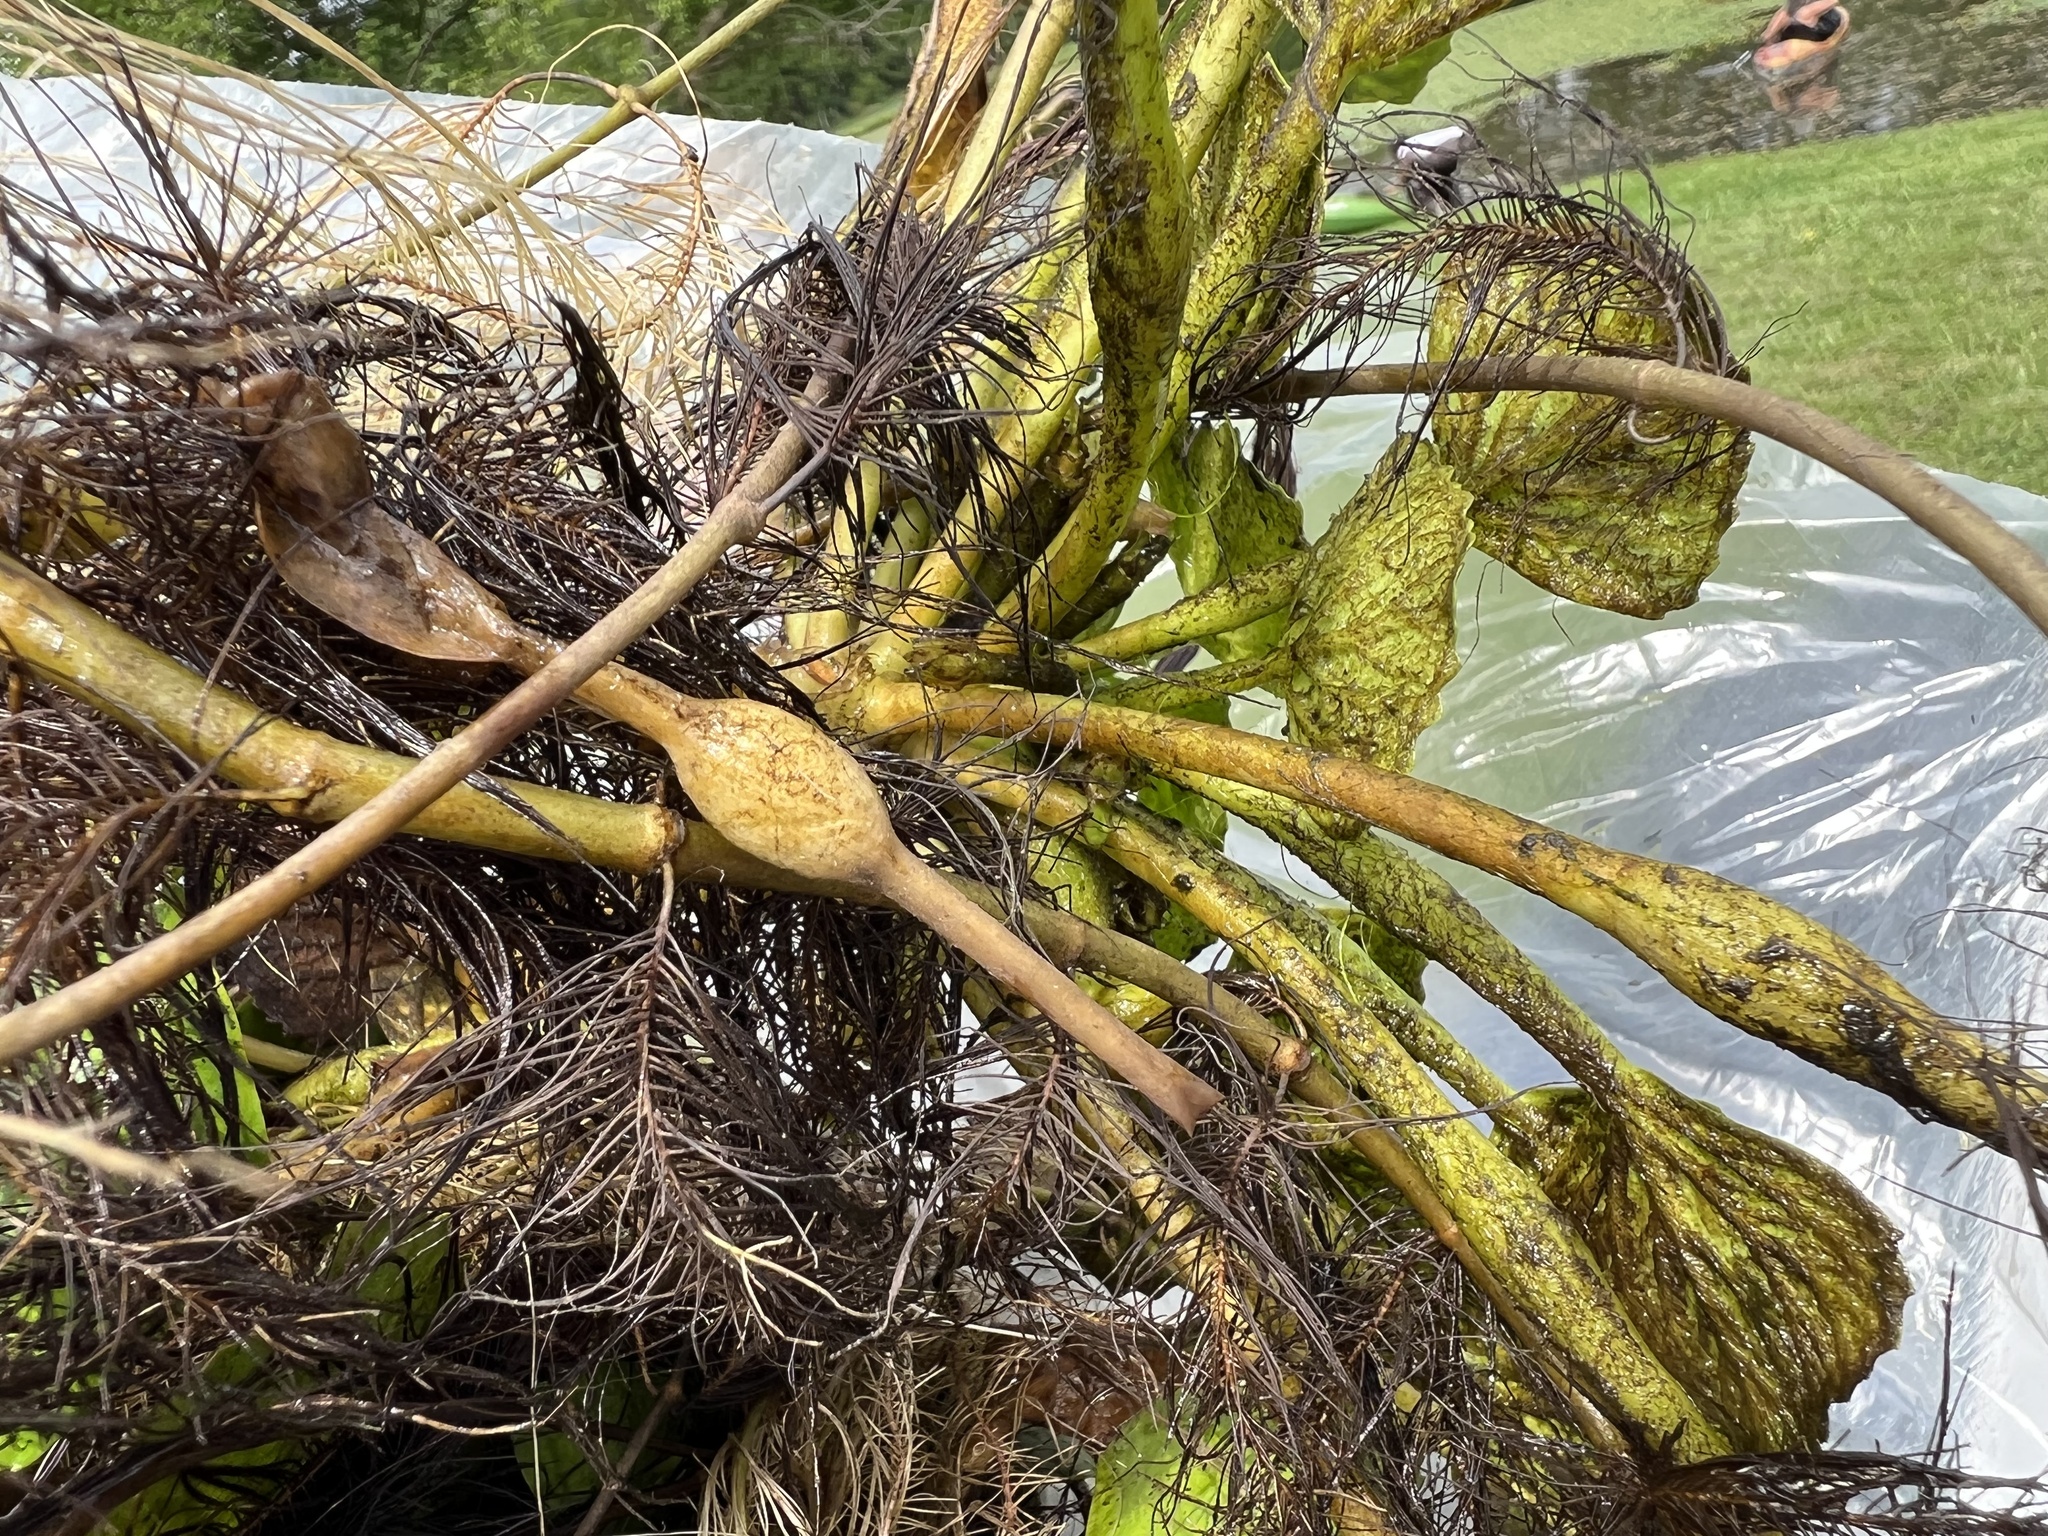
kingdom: Plantae
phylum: Tracheophyta
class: Magnoliopsida
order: Myrtales
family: Lythraceae
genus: Trapa
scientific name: Trapa natans
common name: Water chestnut
